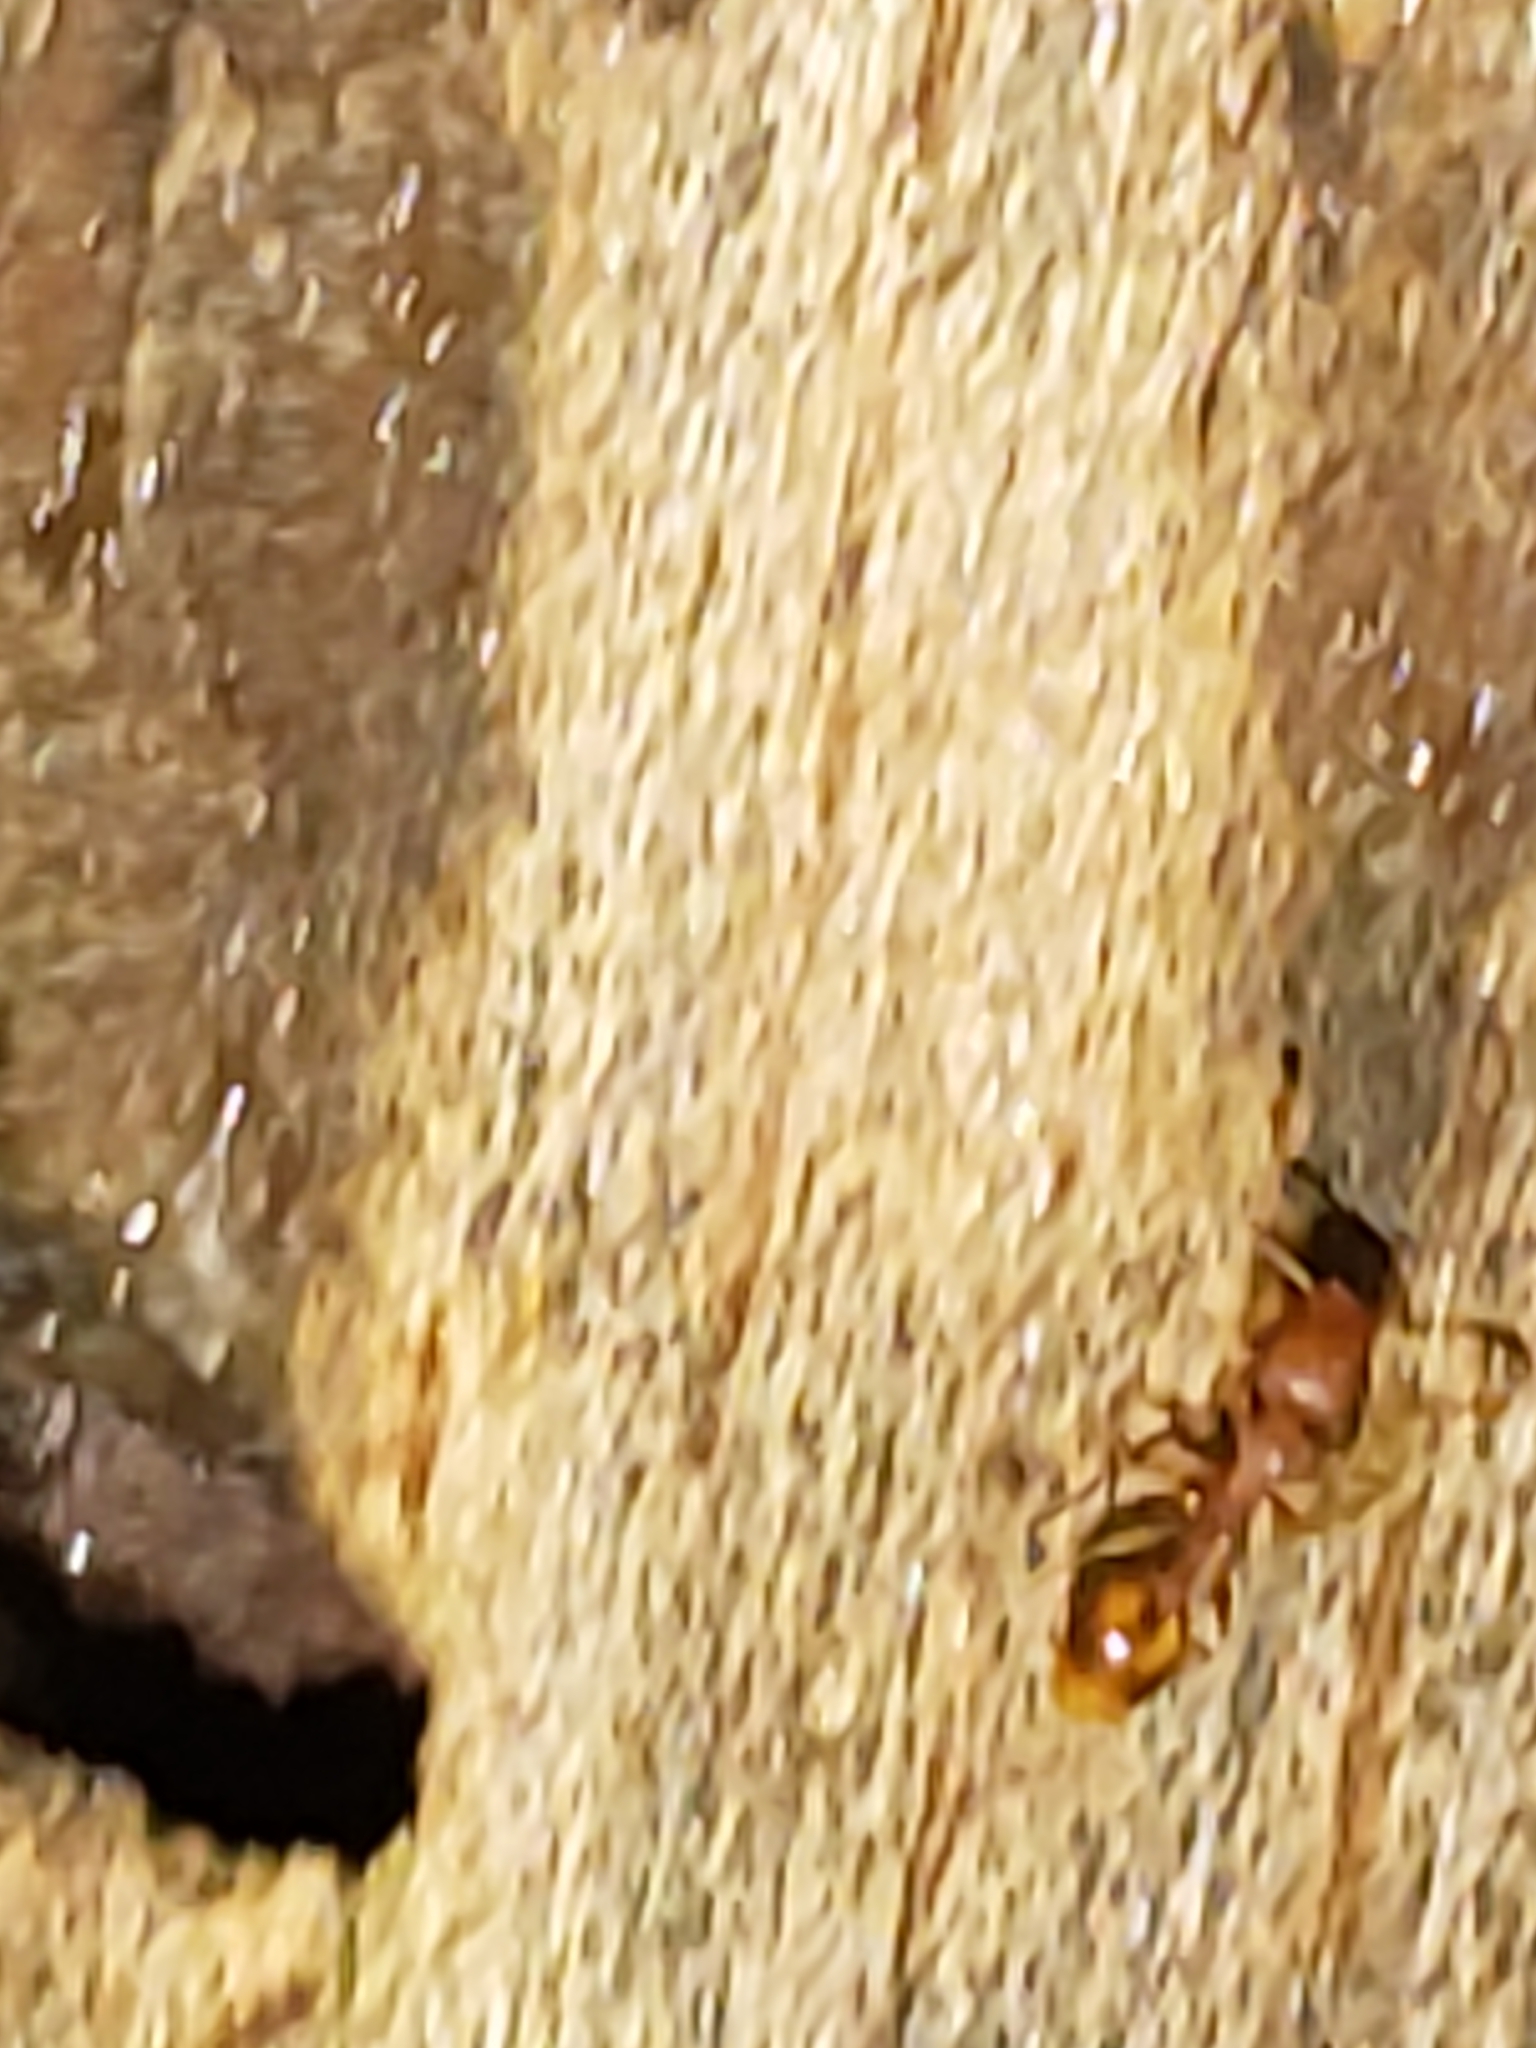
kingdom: Animalia
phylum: Arthropoda
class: Insecta
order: Hymenoptera
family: Formicidae
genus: Temnothorax
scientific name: Temnothorax curvispinosus
